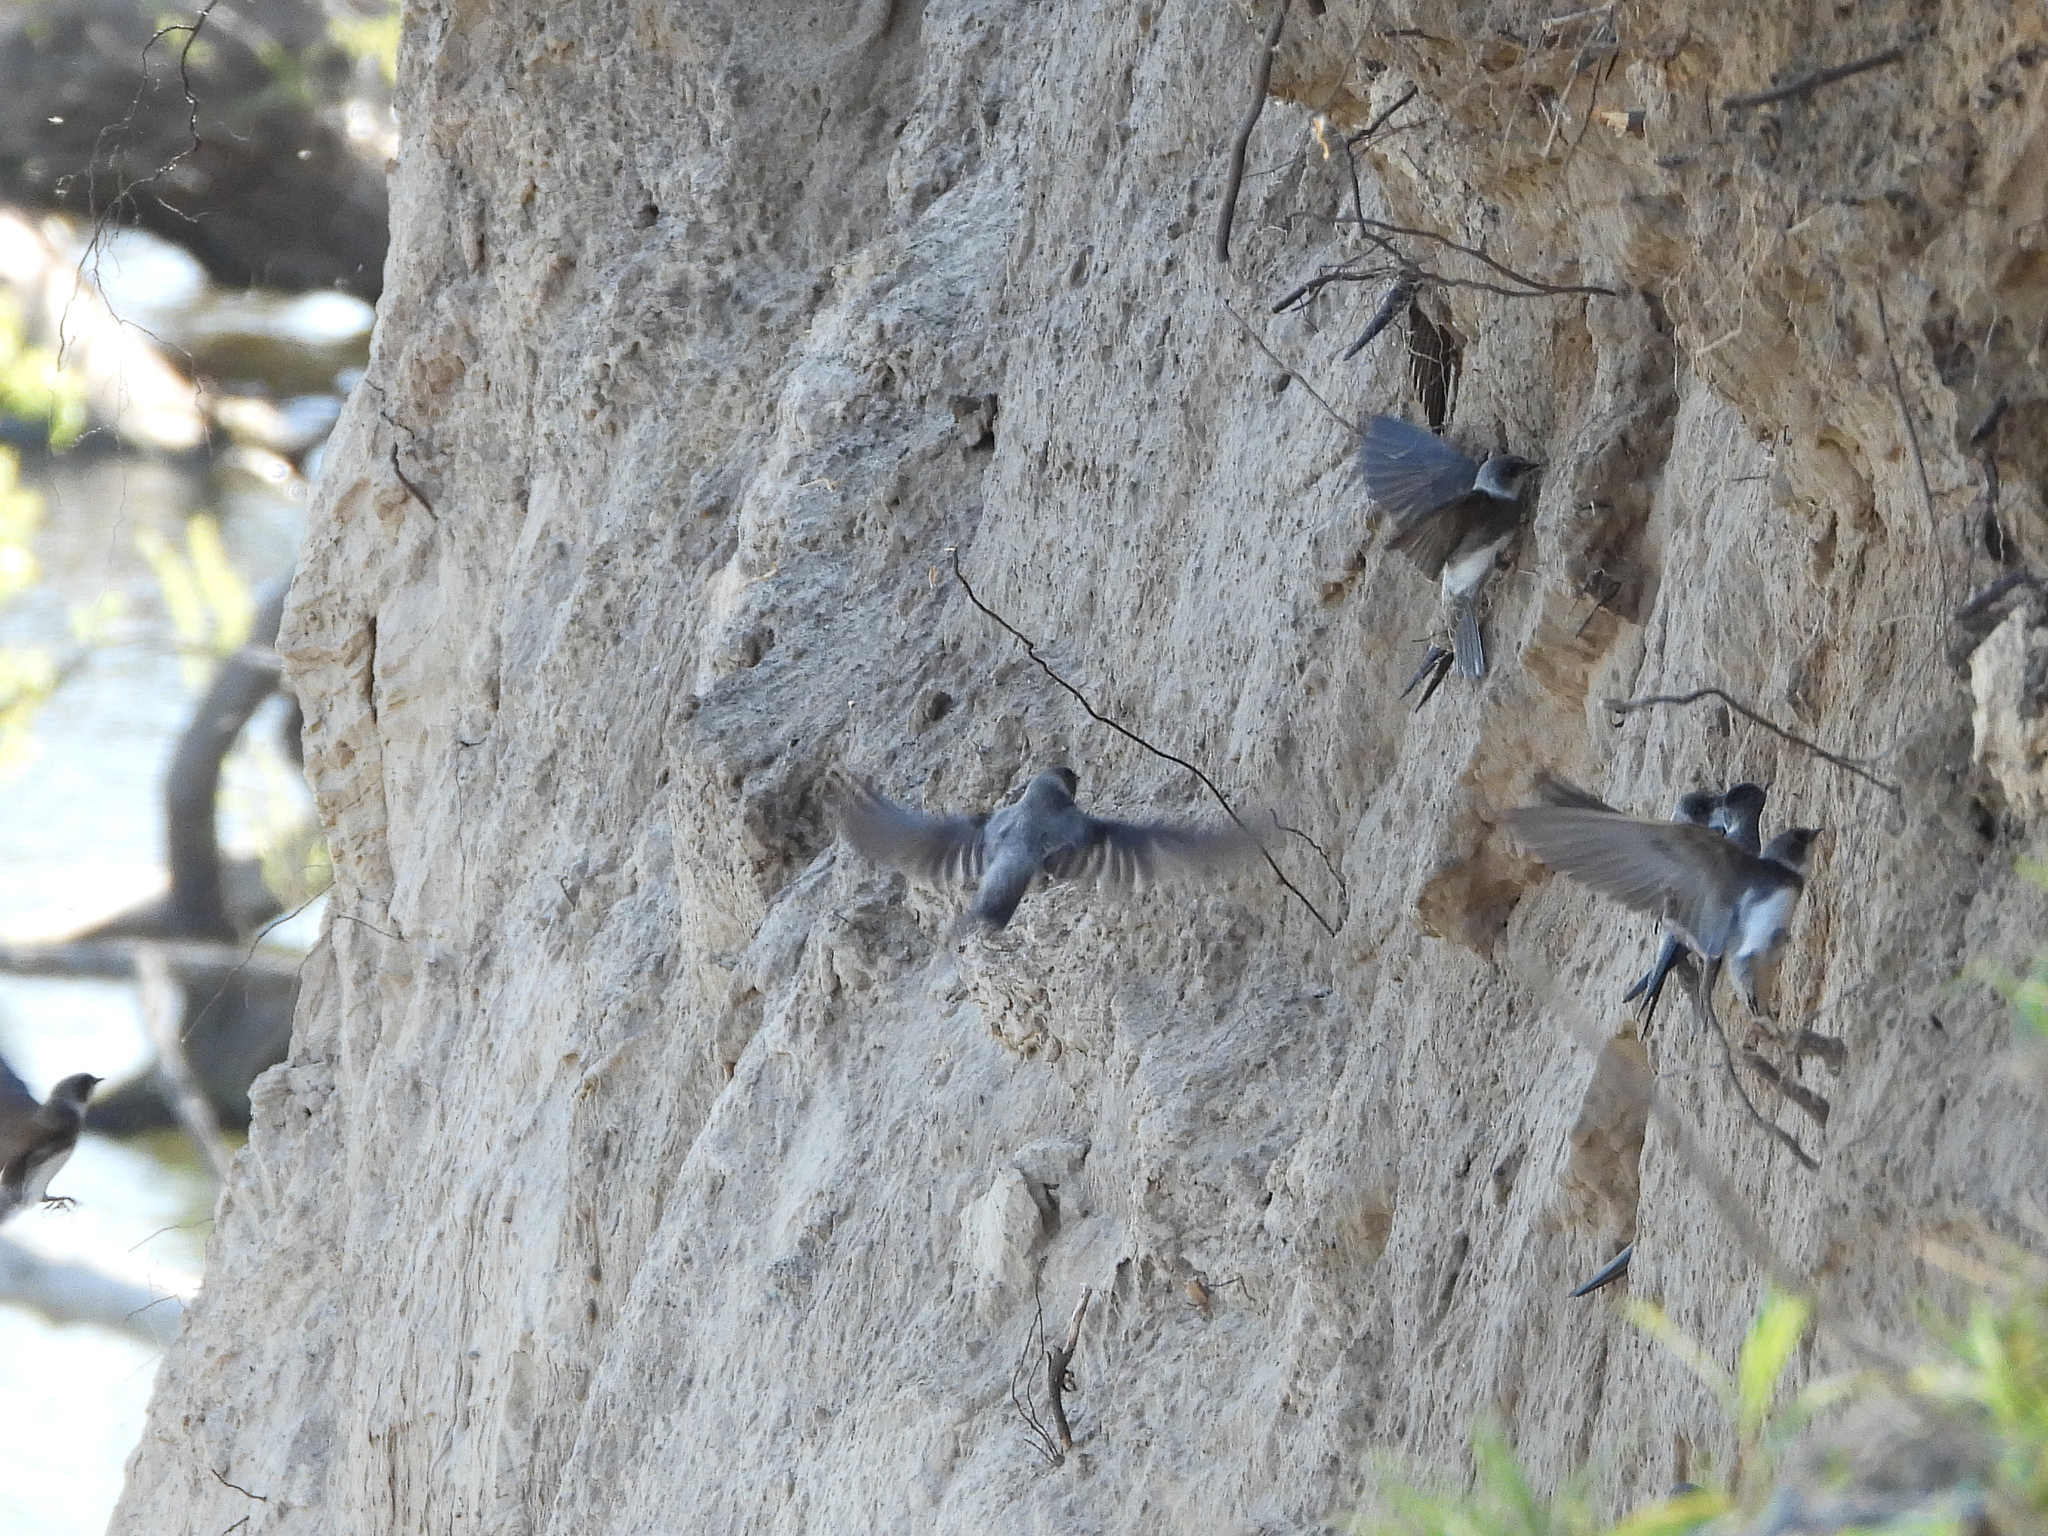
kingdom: Animalia
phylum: Chordata
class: Aves
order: Passeriformes
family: Hirundinidae
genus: Riparia
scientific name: Riparia riparia
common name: Sand martin
